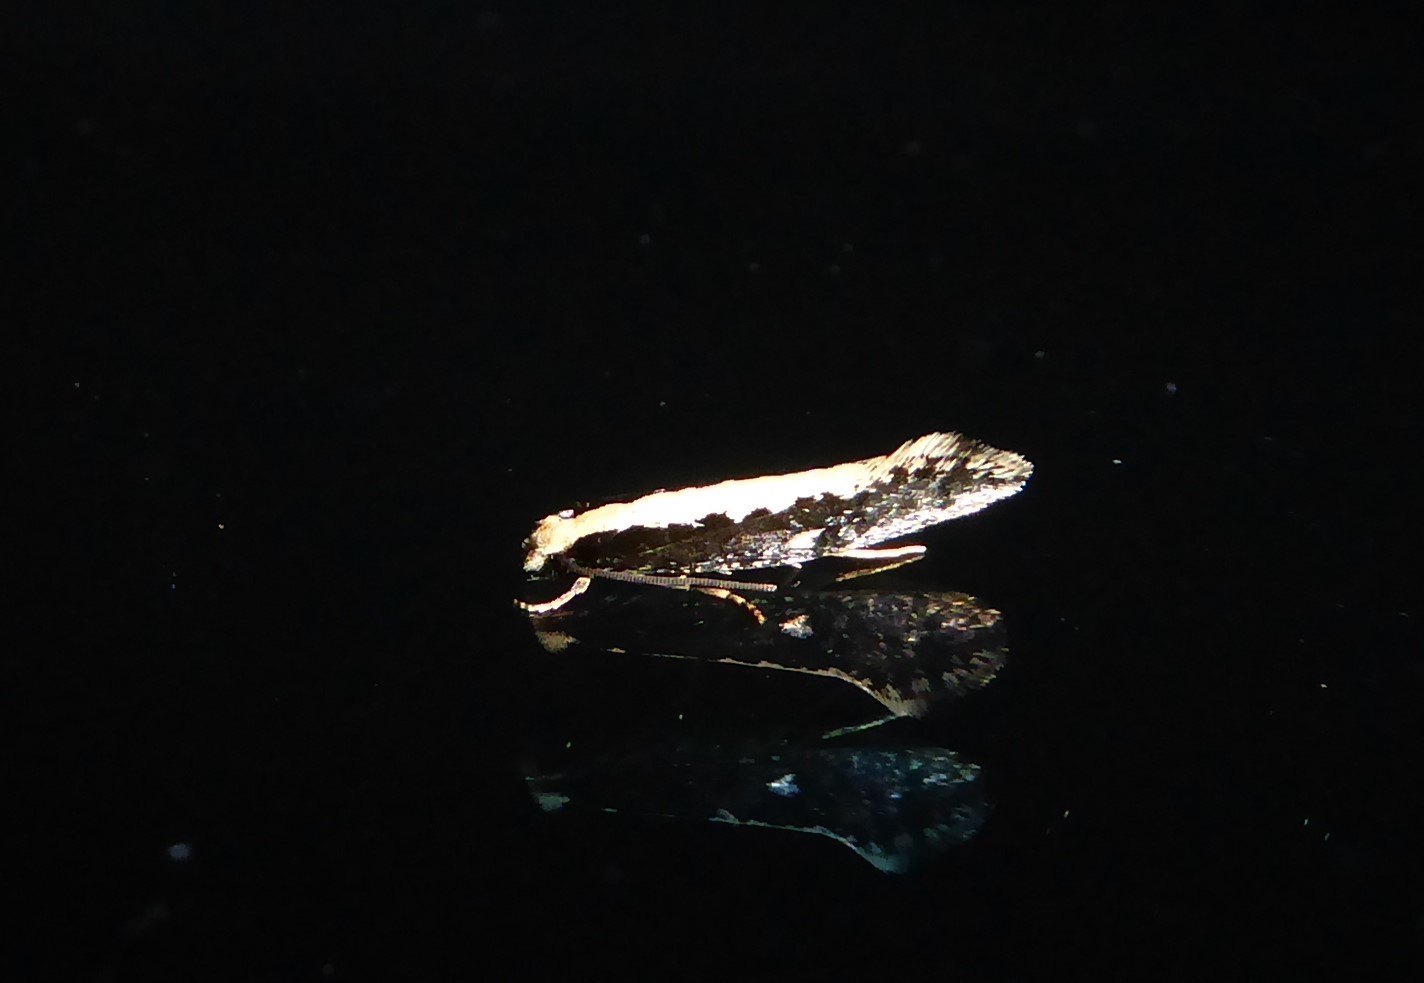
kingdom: Animalia
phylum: Arthropoda
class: Insecta
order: Lepidoptera
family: Tineidae
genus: Monopis
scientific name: Monopis ethelella
